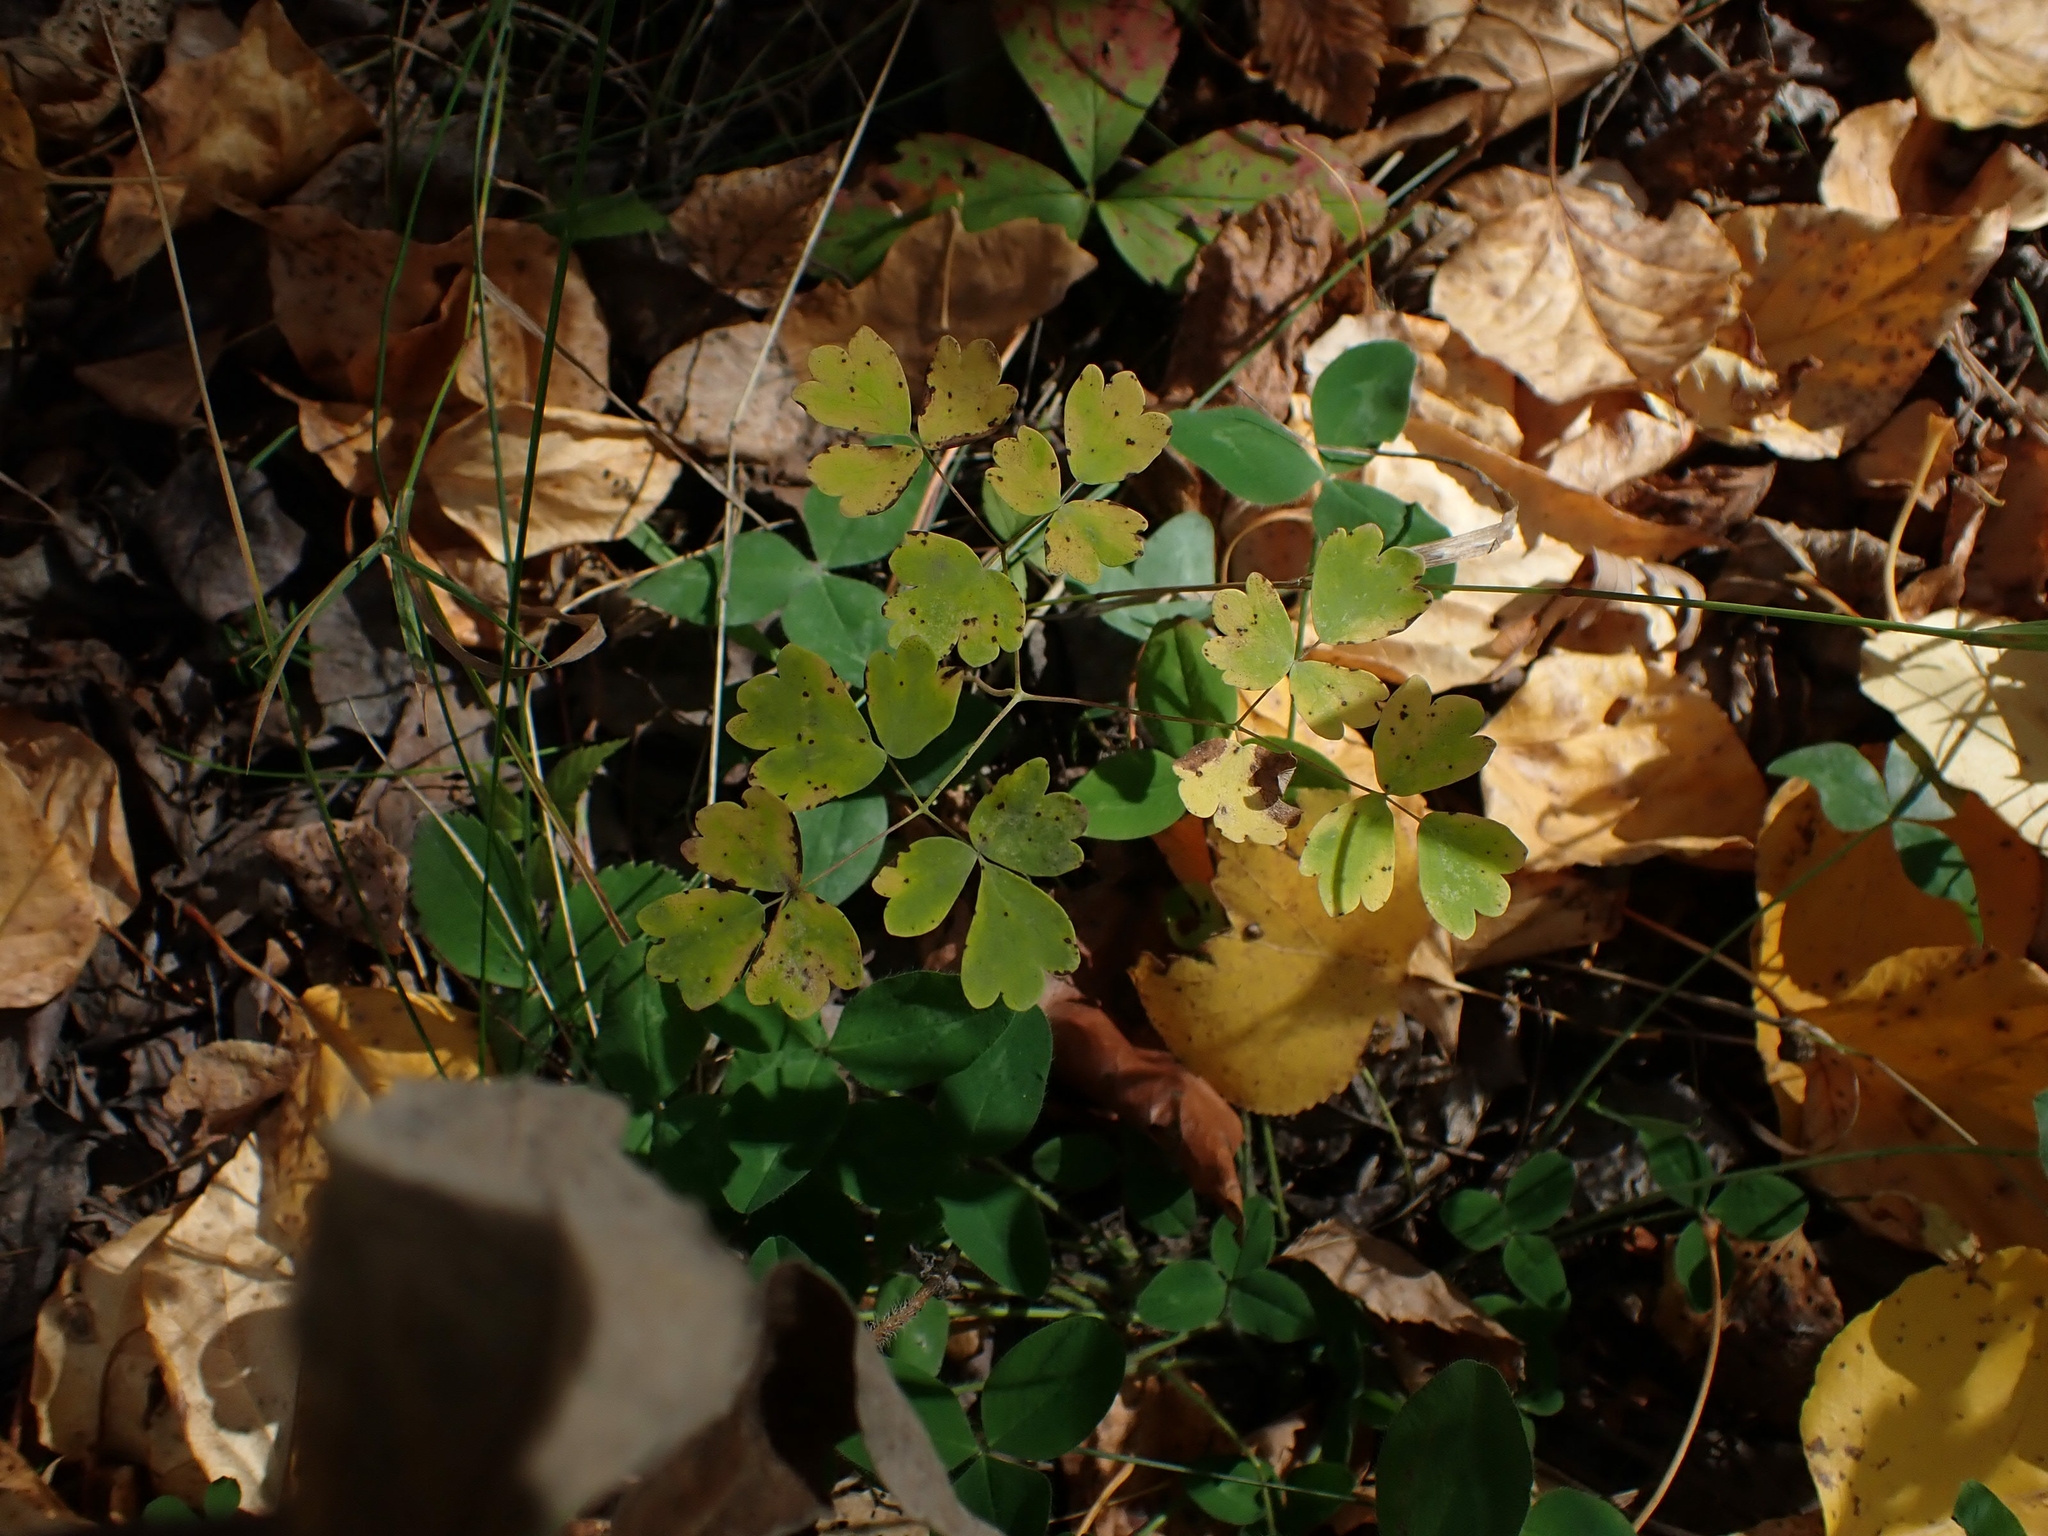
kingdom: Plantae
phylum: Tracheophyta
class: Magnoliopsida
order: Ranunculales
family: Ranunculaceae
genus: Thalictrum
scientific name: Thalictrum venulosum
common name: Early meadow-rue
